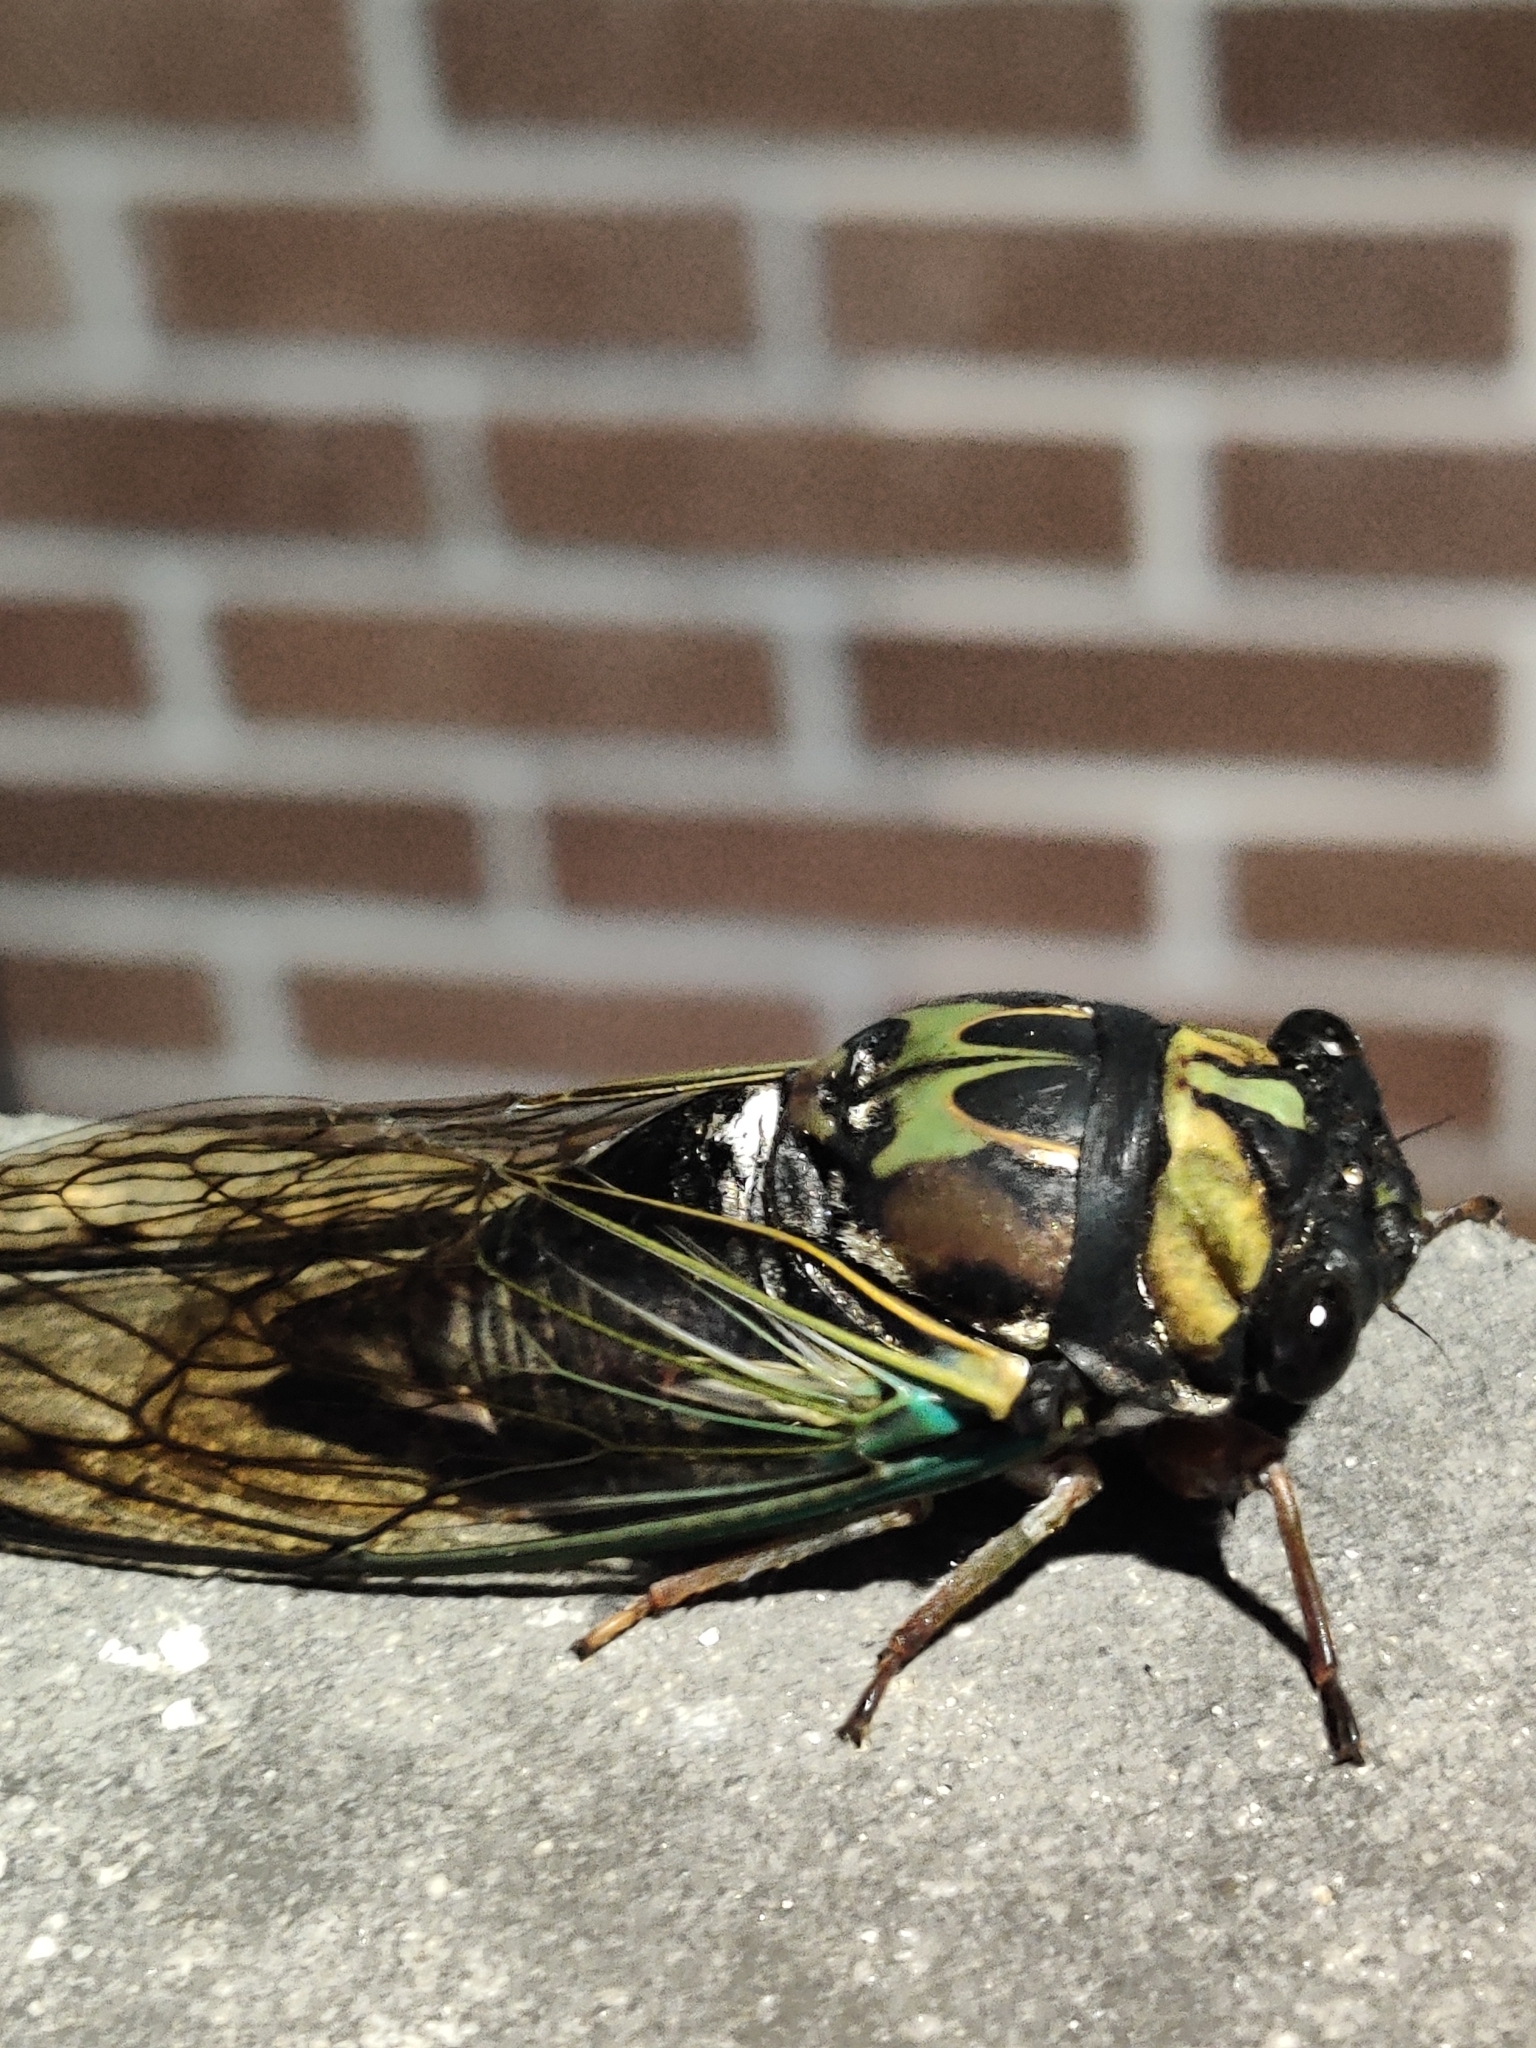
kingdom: Animalia
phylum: Arthropoda
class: Insecta
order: Hemiptera
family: Cicadidae
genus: Neotibicen
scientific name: Neotibicen lyricen
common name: Lyric cicada
